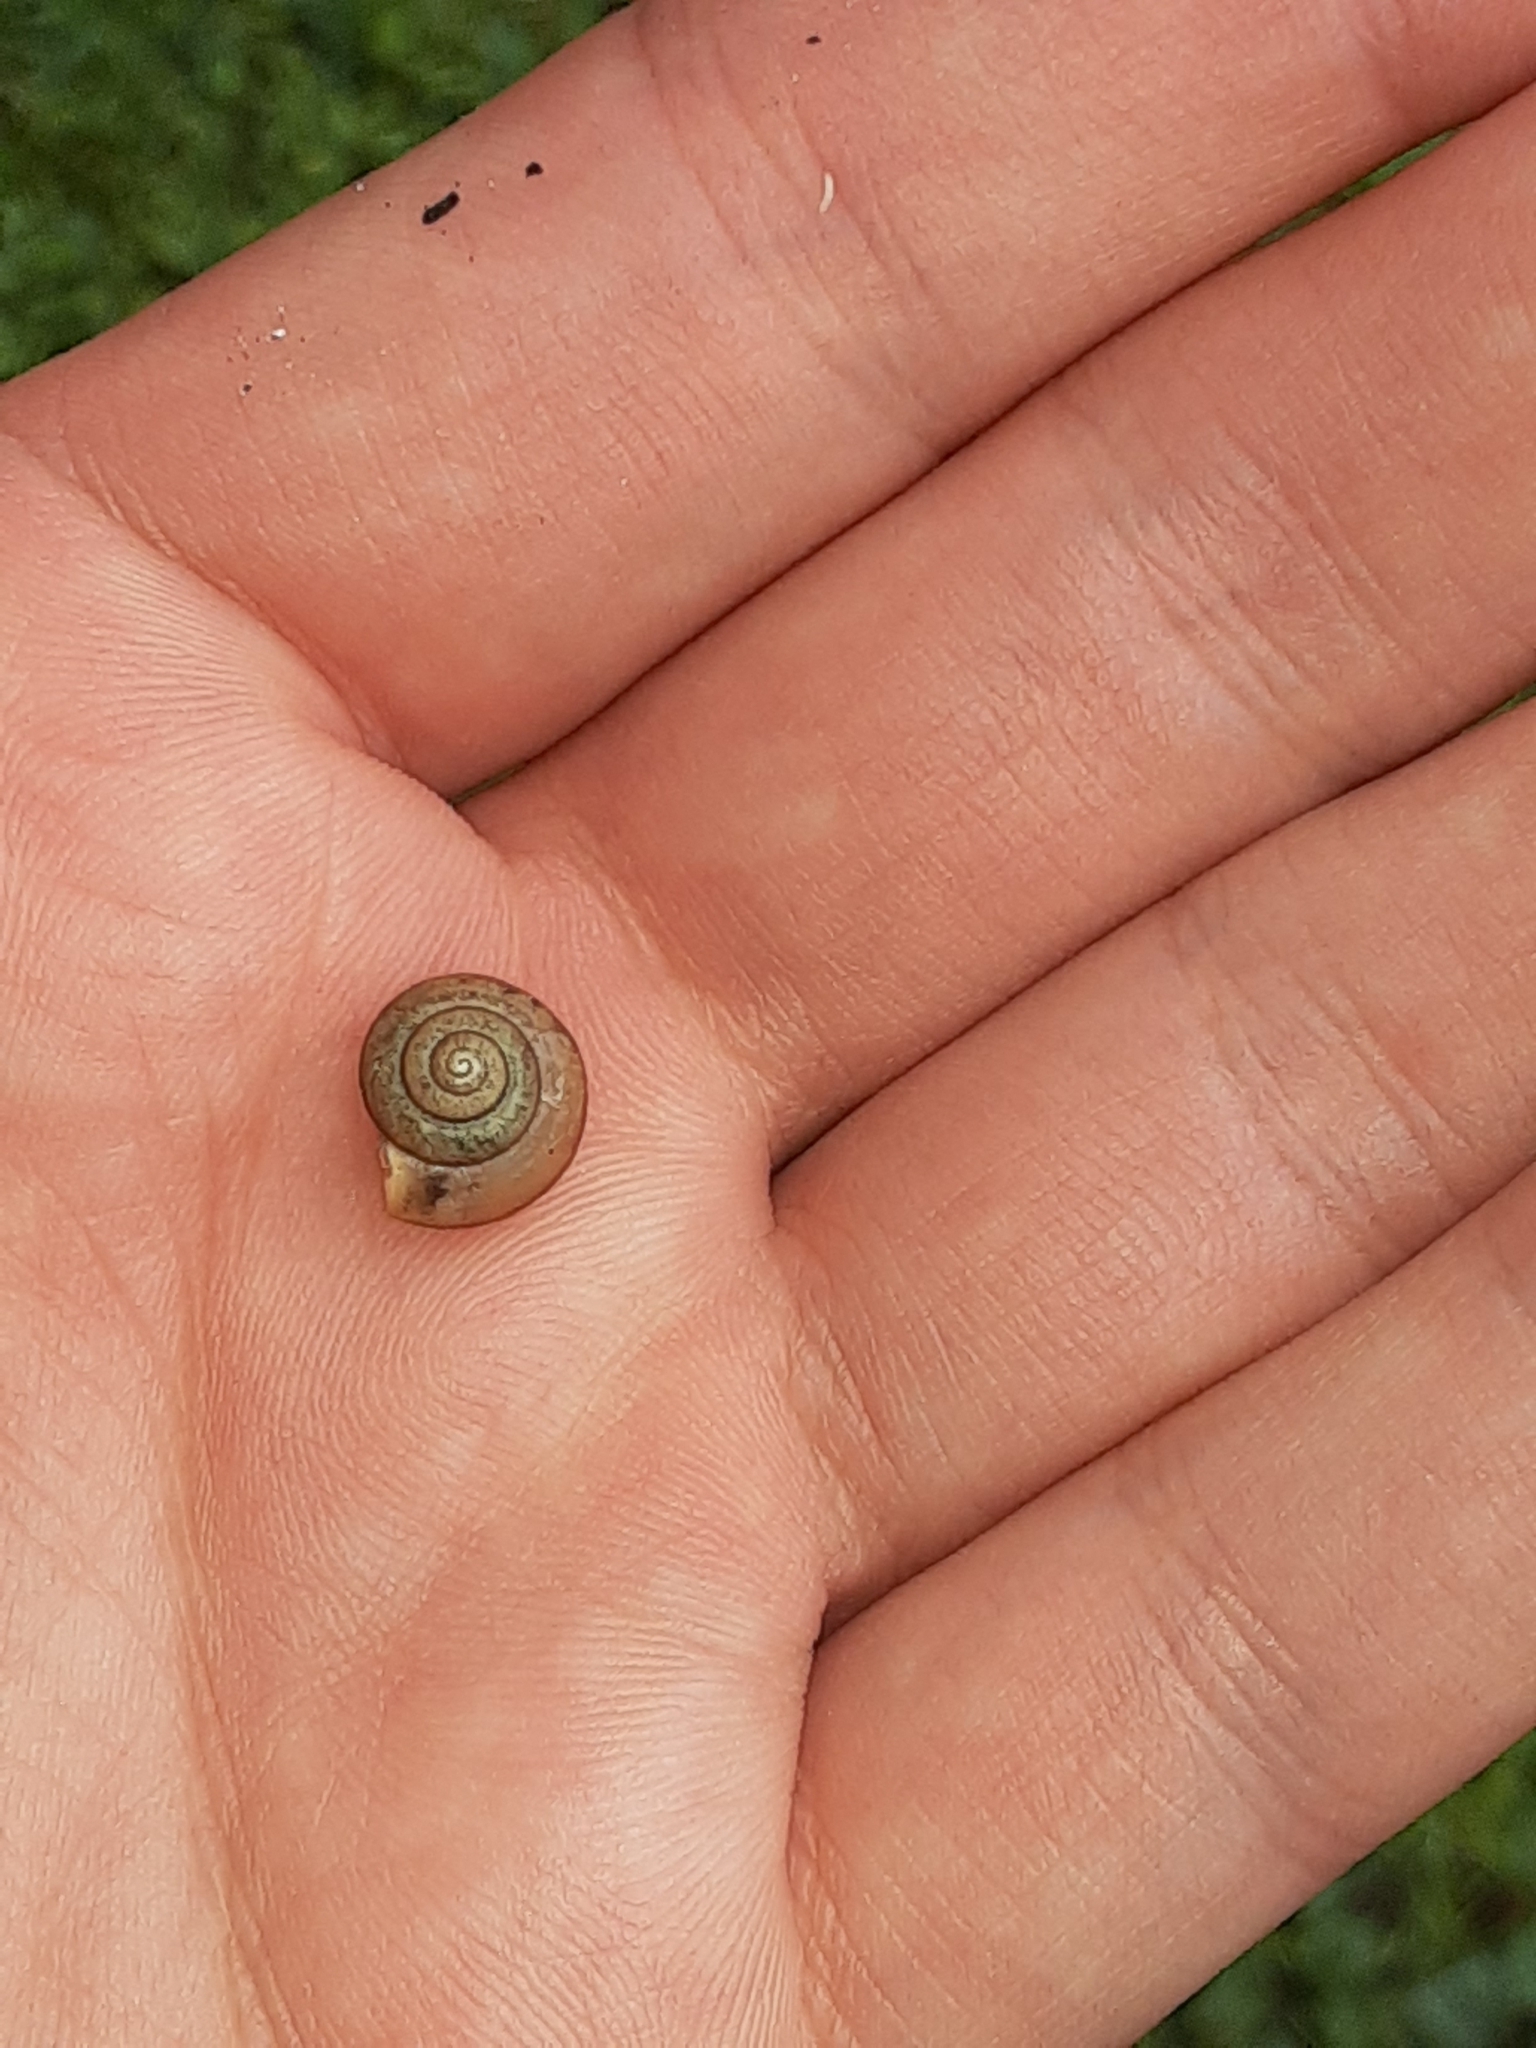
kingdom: Animalia
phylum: Mollusca
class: Gastropoda
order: Stylommatophora
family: Camaenidae
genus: Bradybaena
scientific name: Bradybaena similaris
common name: Asian trampsnail
